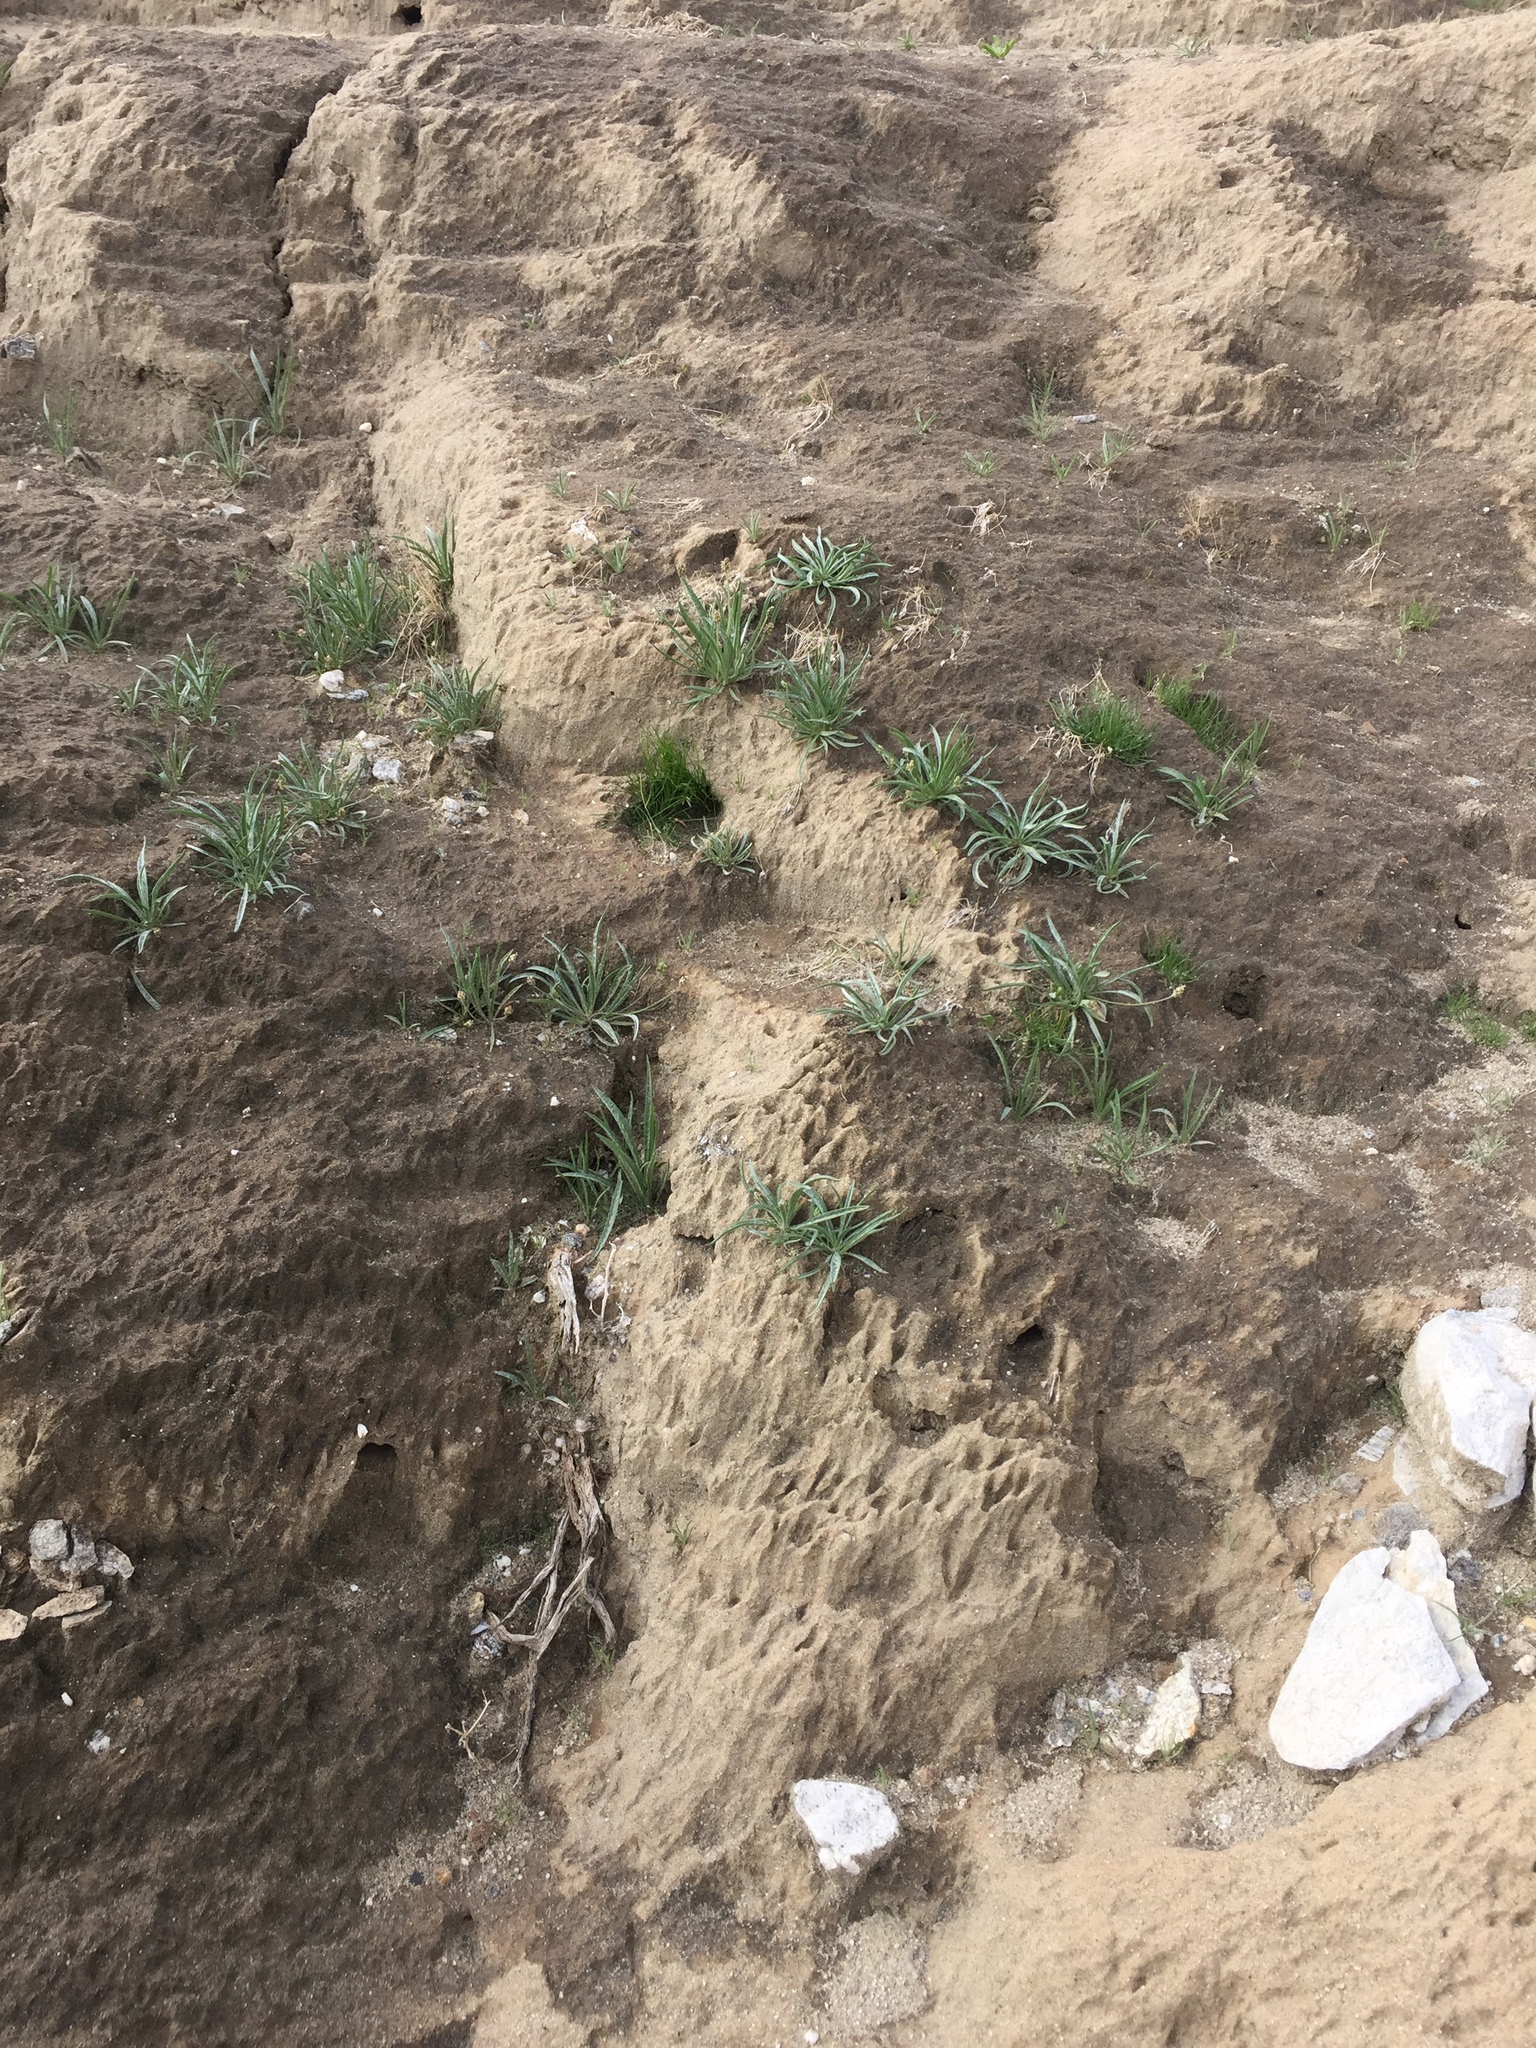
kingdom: Plantae
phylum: Tracheophyta
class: Magnoliopsida
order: Lamiales
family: Plantaginaceae
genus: Plantago
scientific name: Plantago ovata
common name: Blond plantain
